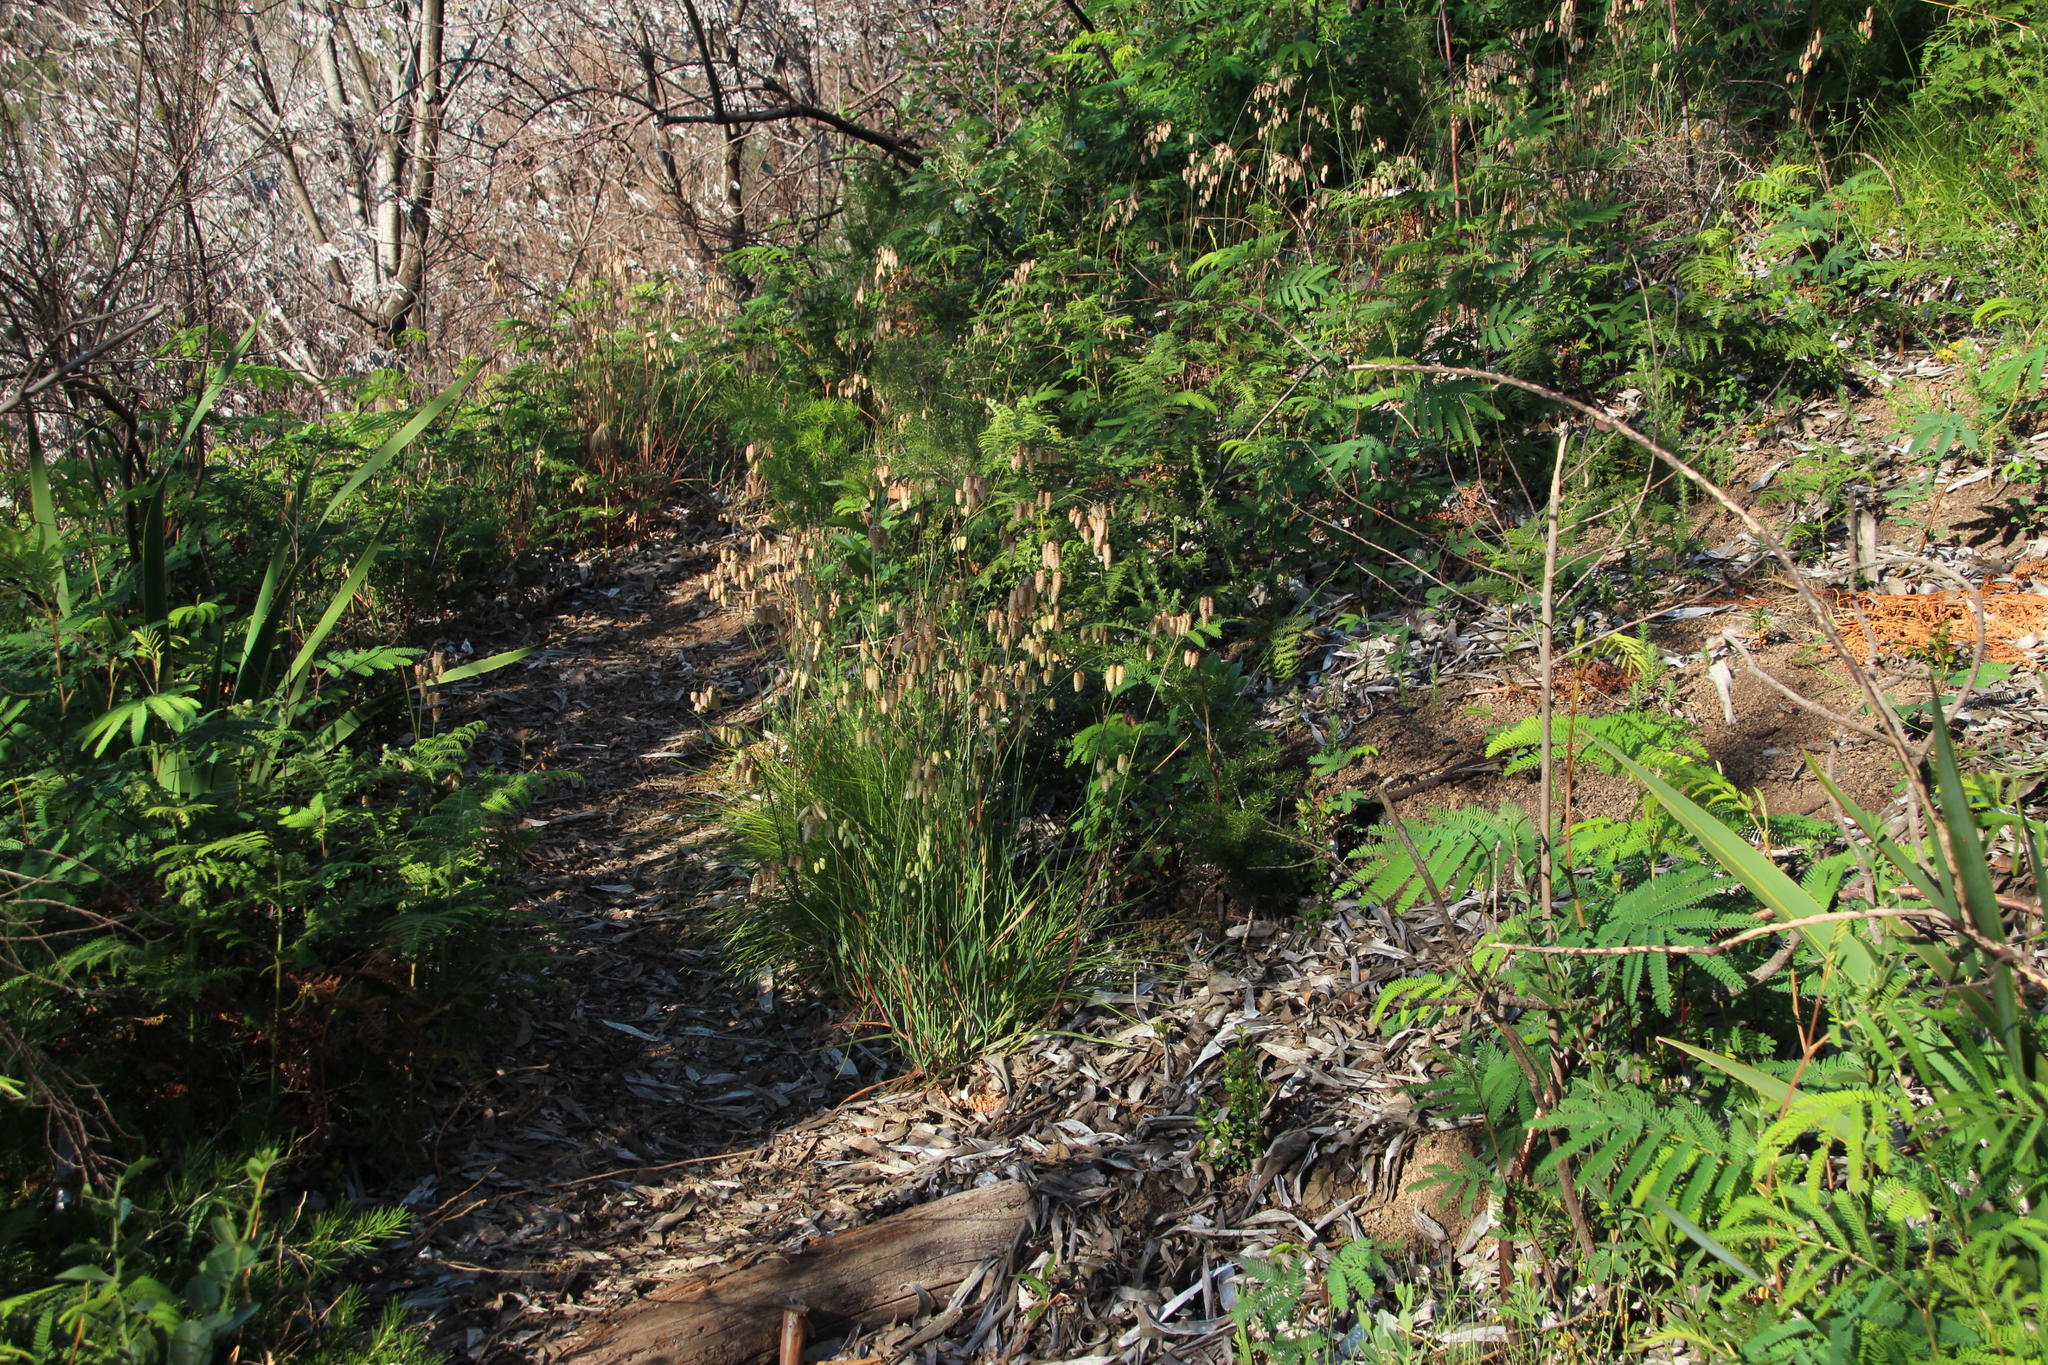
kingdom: Plantae
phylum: Tracheophyta
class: Liliopsida
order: Poales
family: Poaceae
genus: Briza
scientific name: Briza maxima
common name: Big quakinggrass
